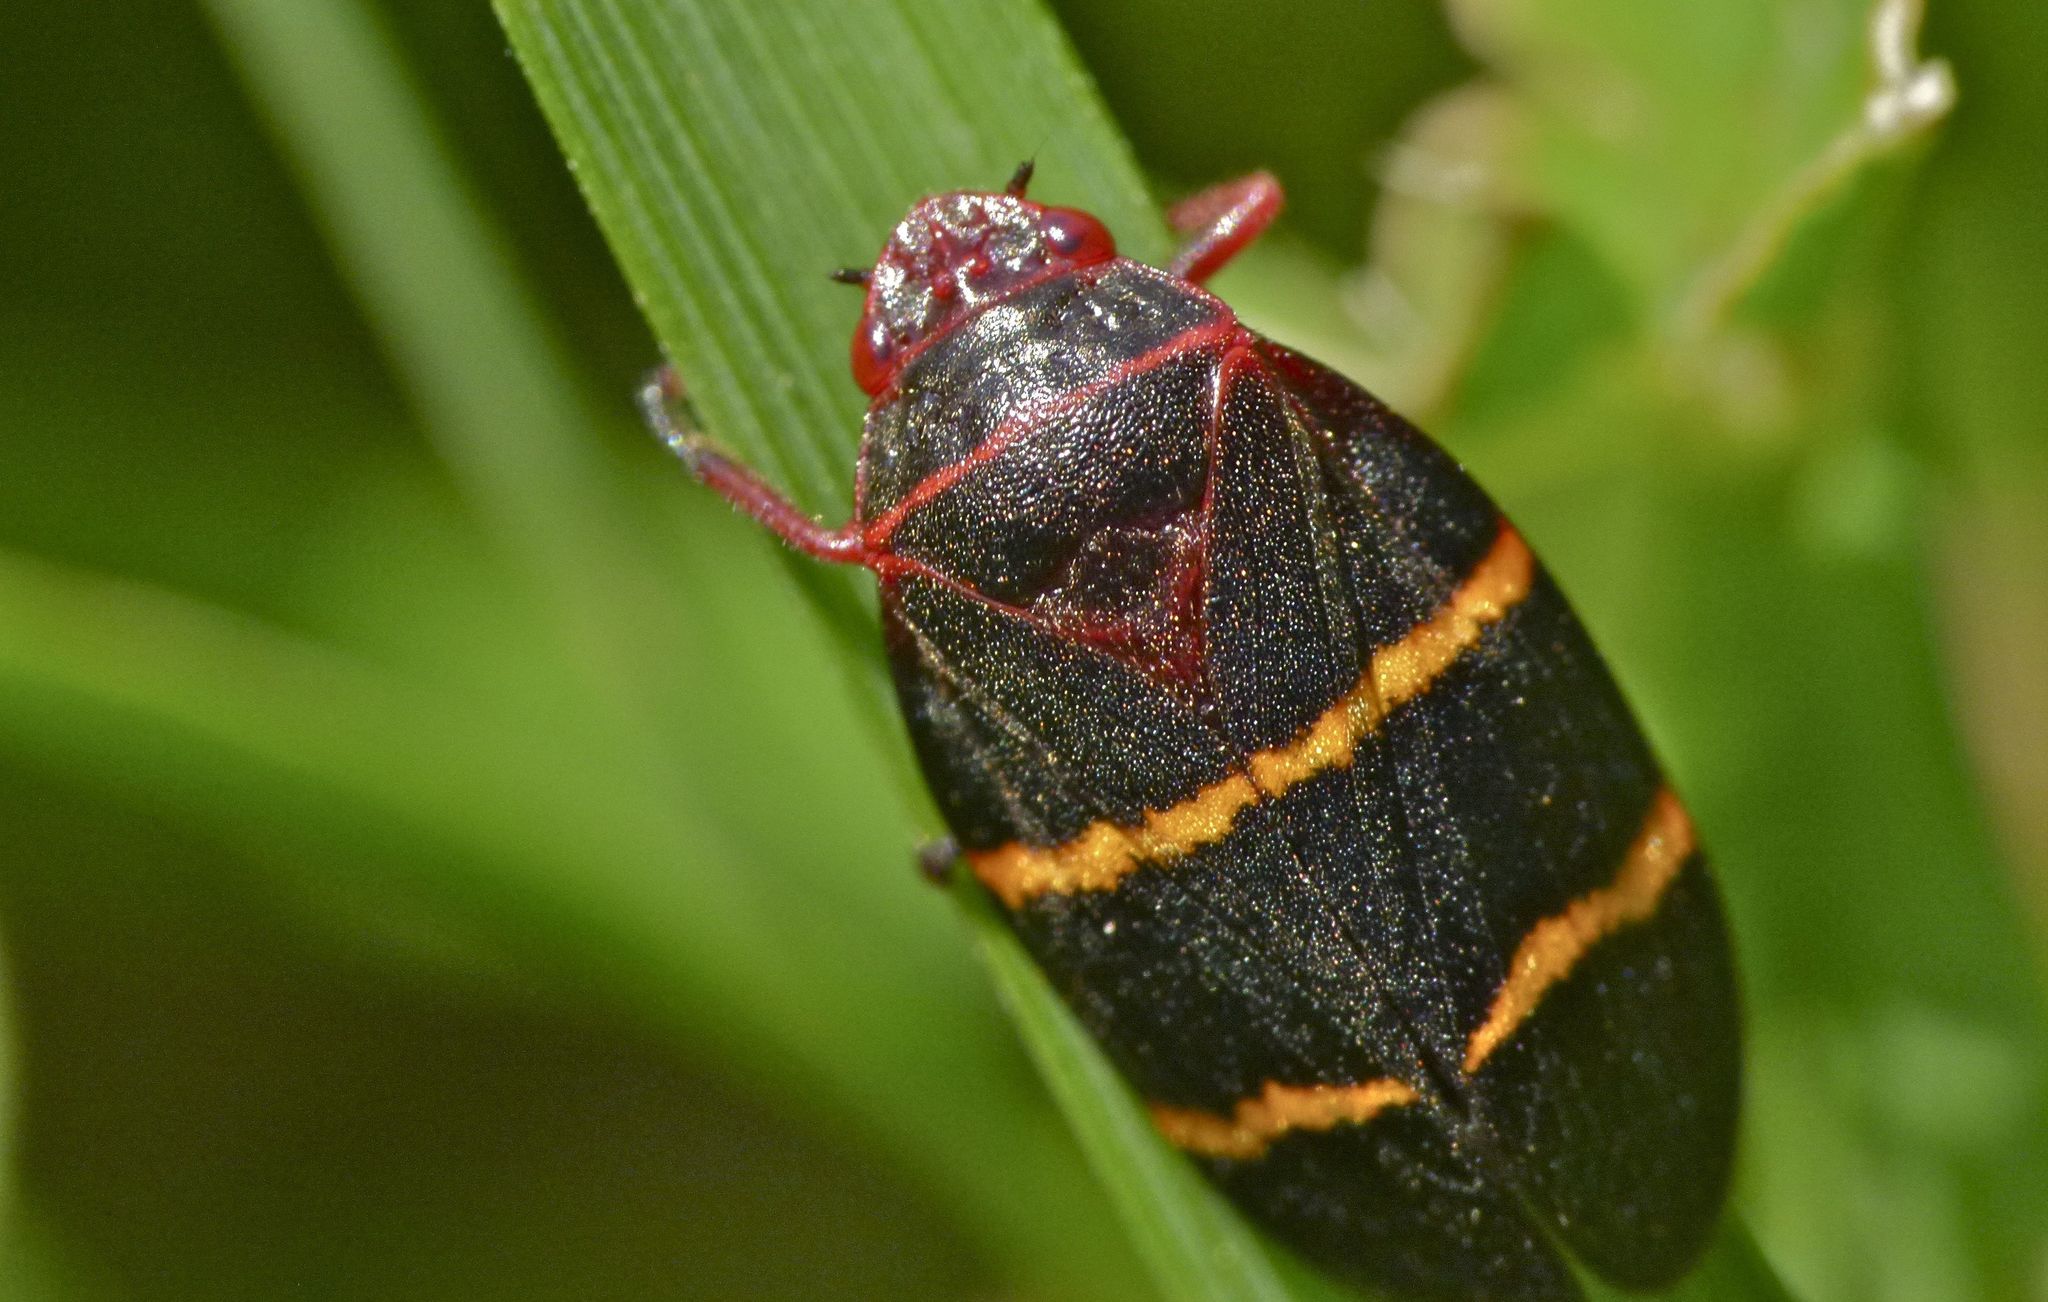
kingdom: Animalia
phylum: Arthropoda
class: Insecta
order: Hemiptera
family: Cercopidae
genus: Prosapia
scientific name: Prosapia bicincta
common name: Twolined spittlebug
